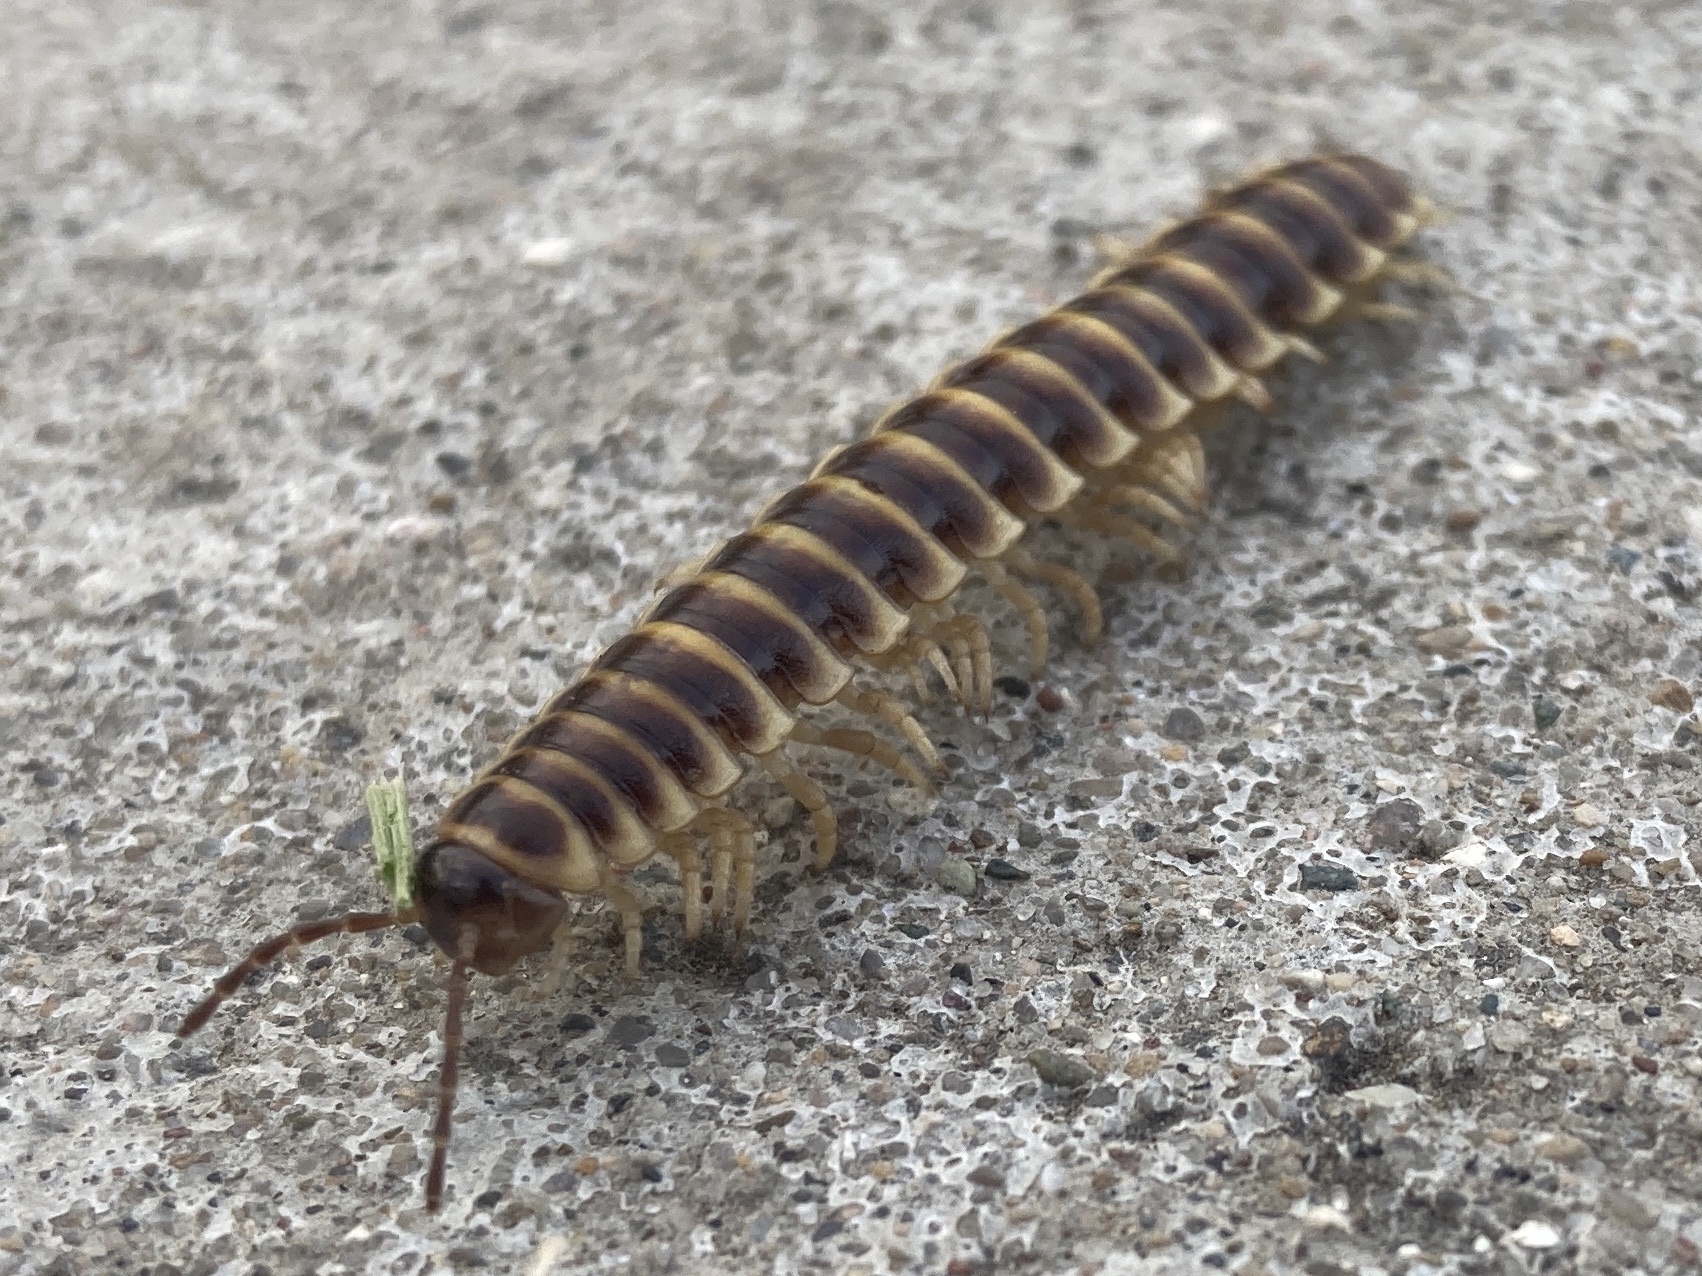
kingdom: Animalia
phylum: Arthropoda
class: Diplopoda
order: Polydesmida
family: Xystodesmidae
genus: Pleuroloma
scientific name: Pleuroloma flavipes
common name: Yellow-legged pleuroloma
